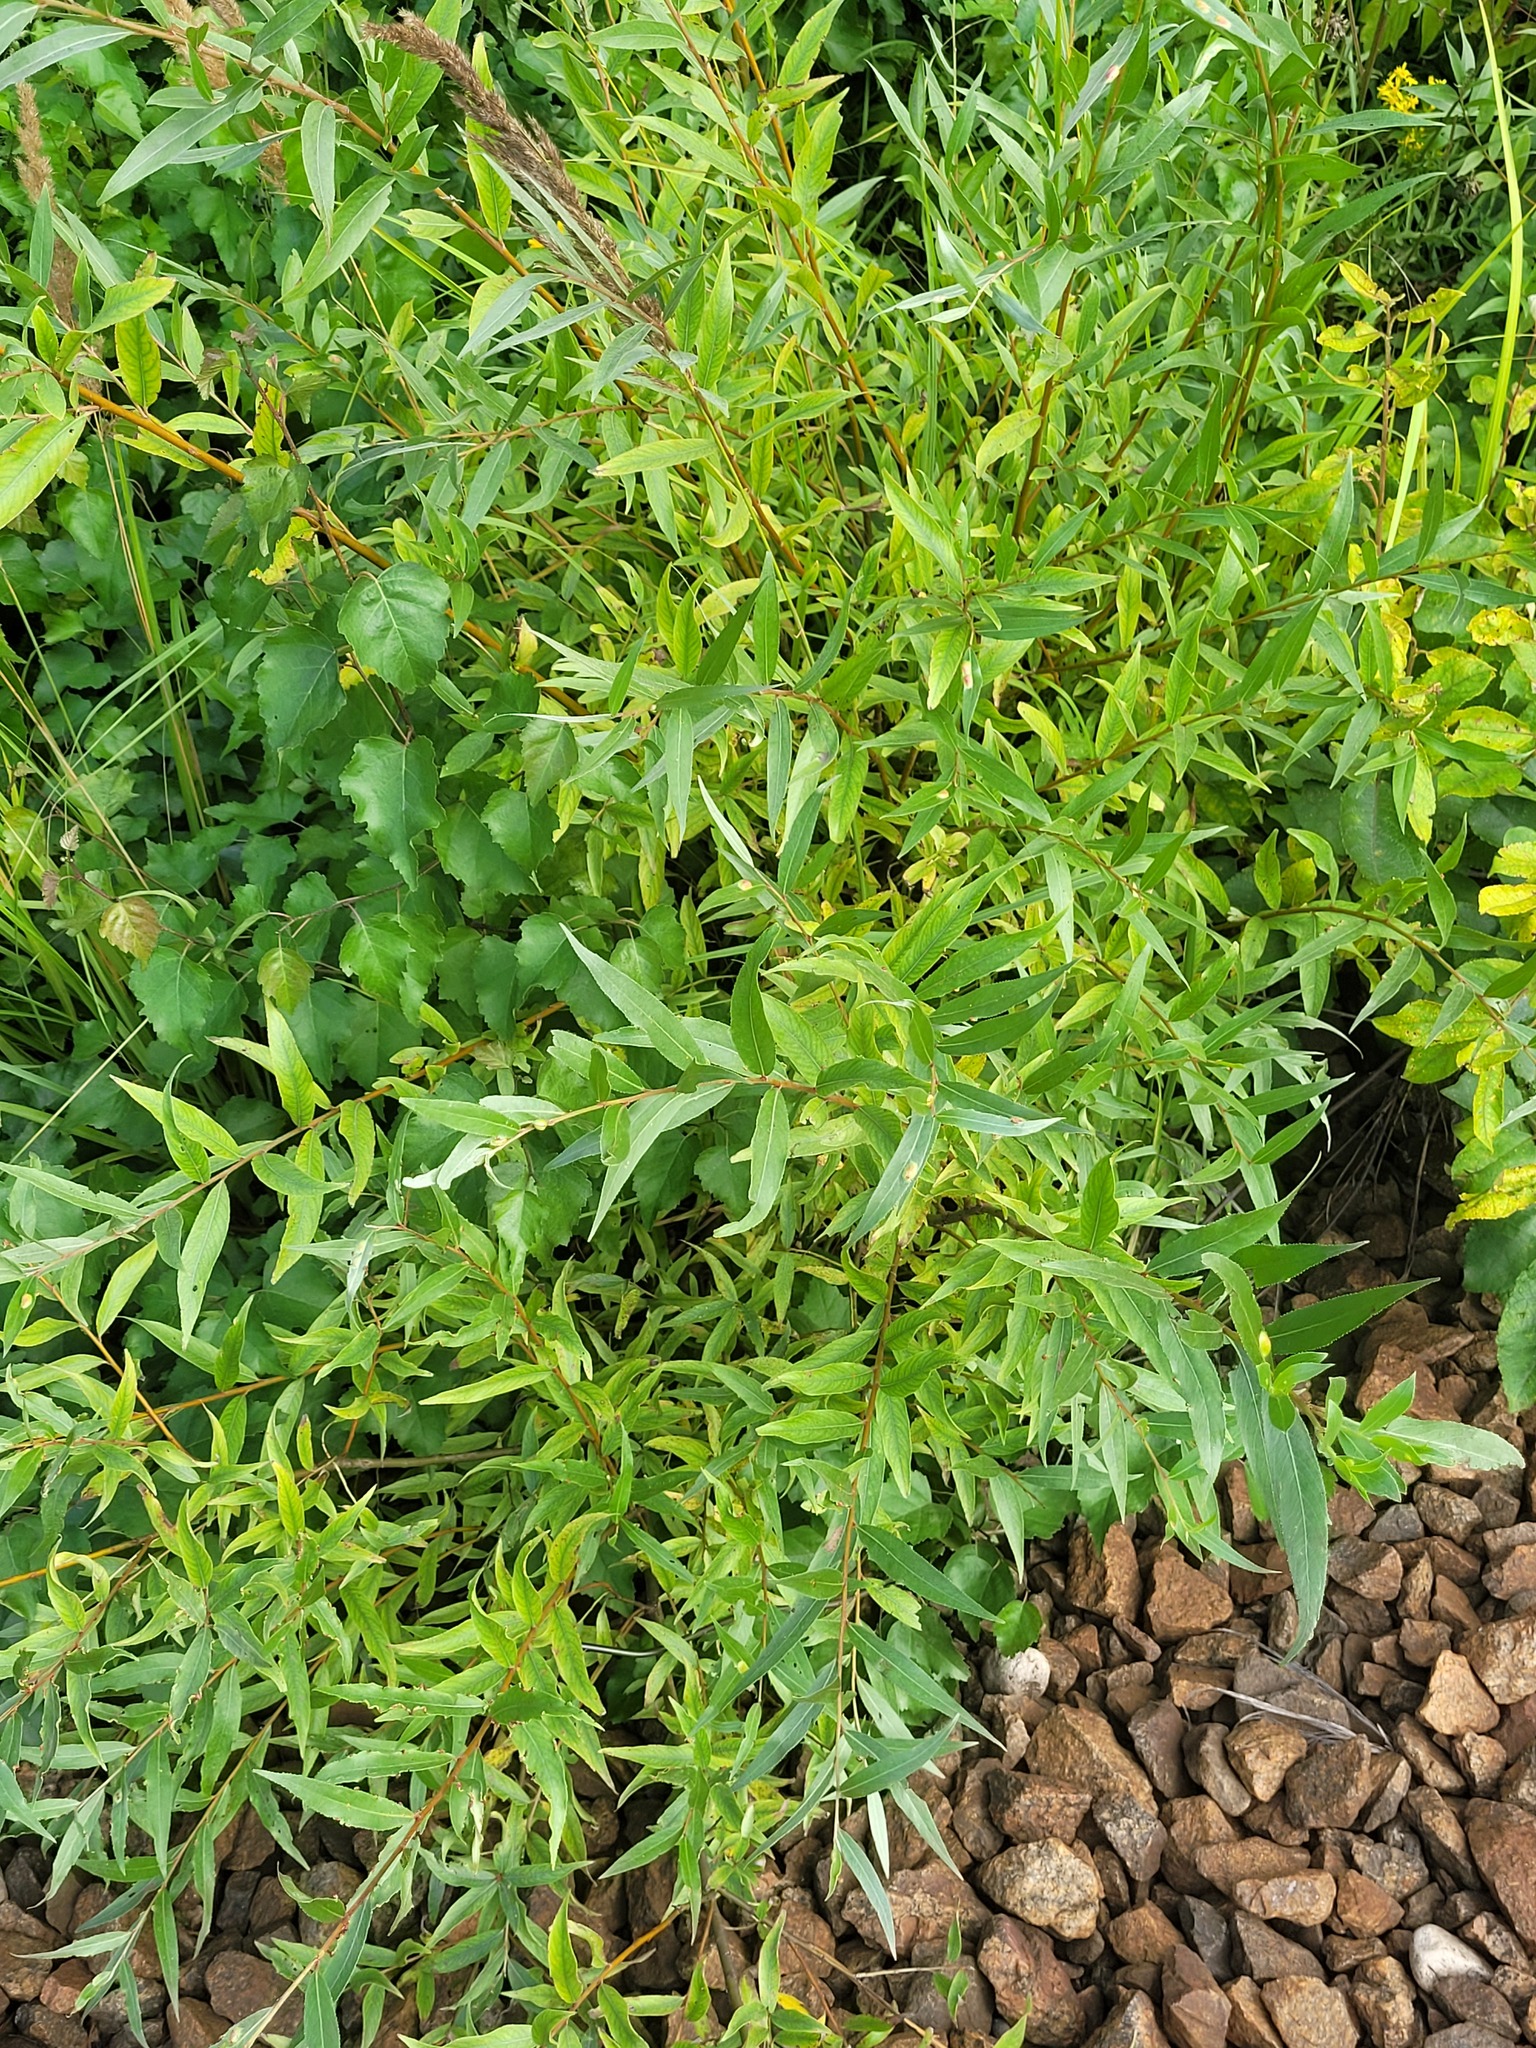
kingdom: Plantae
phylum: Tracheophyta
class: Magnoliopsida
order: Malpighiales
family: Salicaceae
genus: Salix
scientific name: Salix alba
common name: White willow
